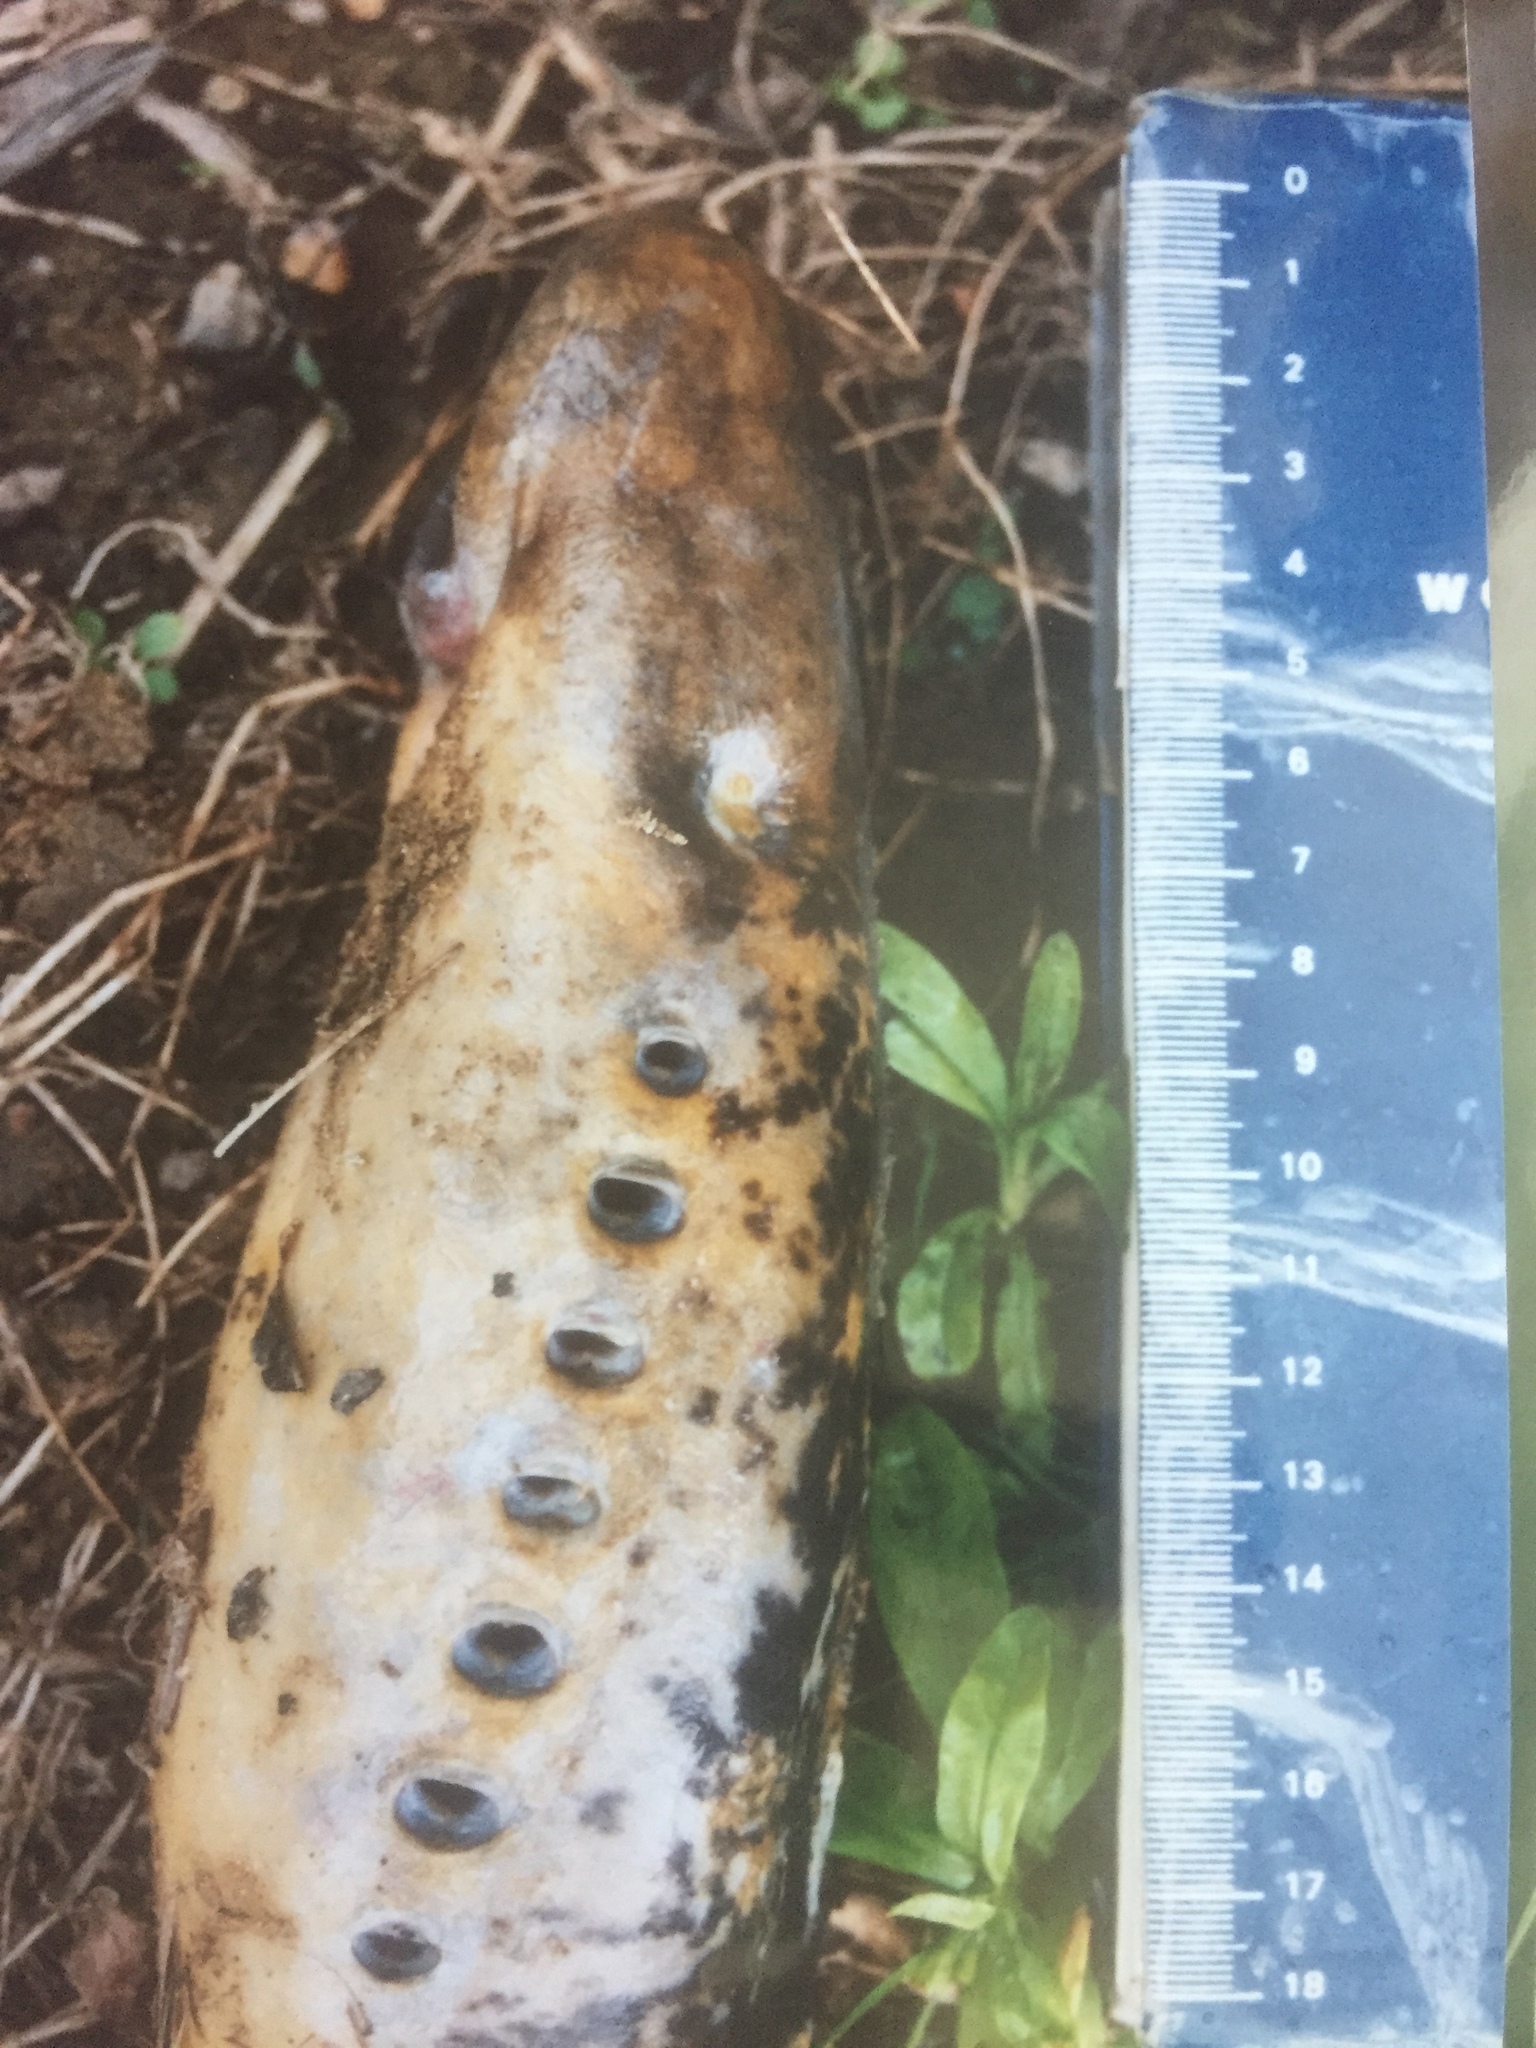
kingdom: Animalia
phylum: Chordata
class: Petromyzonti
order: Petromyzontiformes
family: Petromyzontidae
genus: Petromyzon
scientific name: Petromyzon marinus
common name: Sea lamprey
